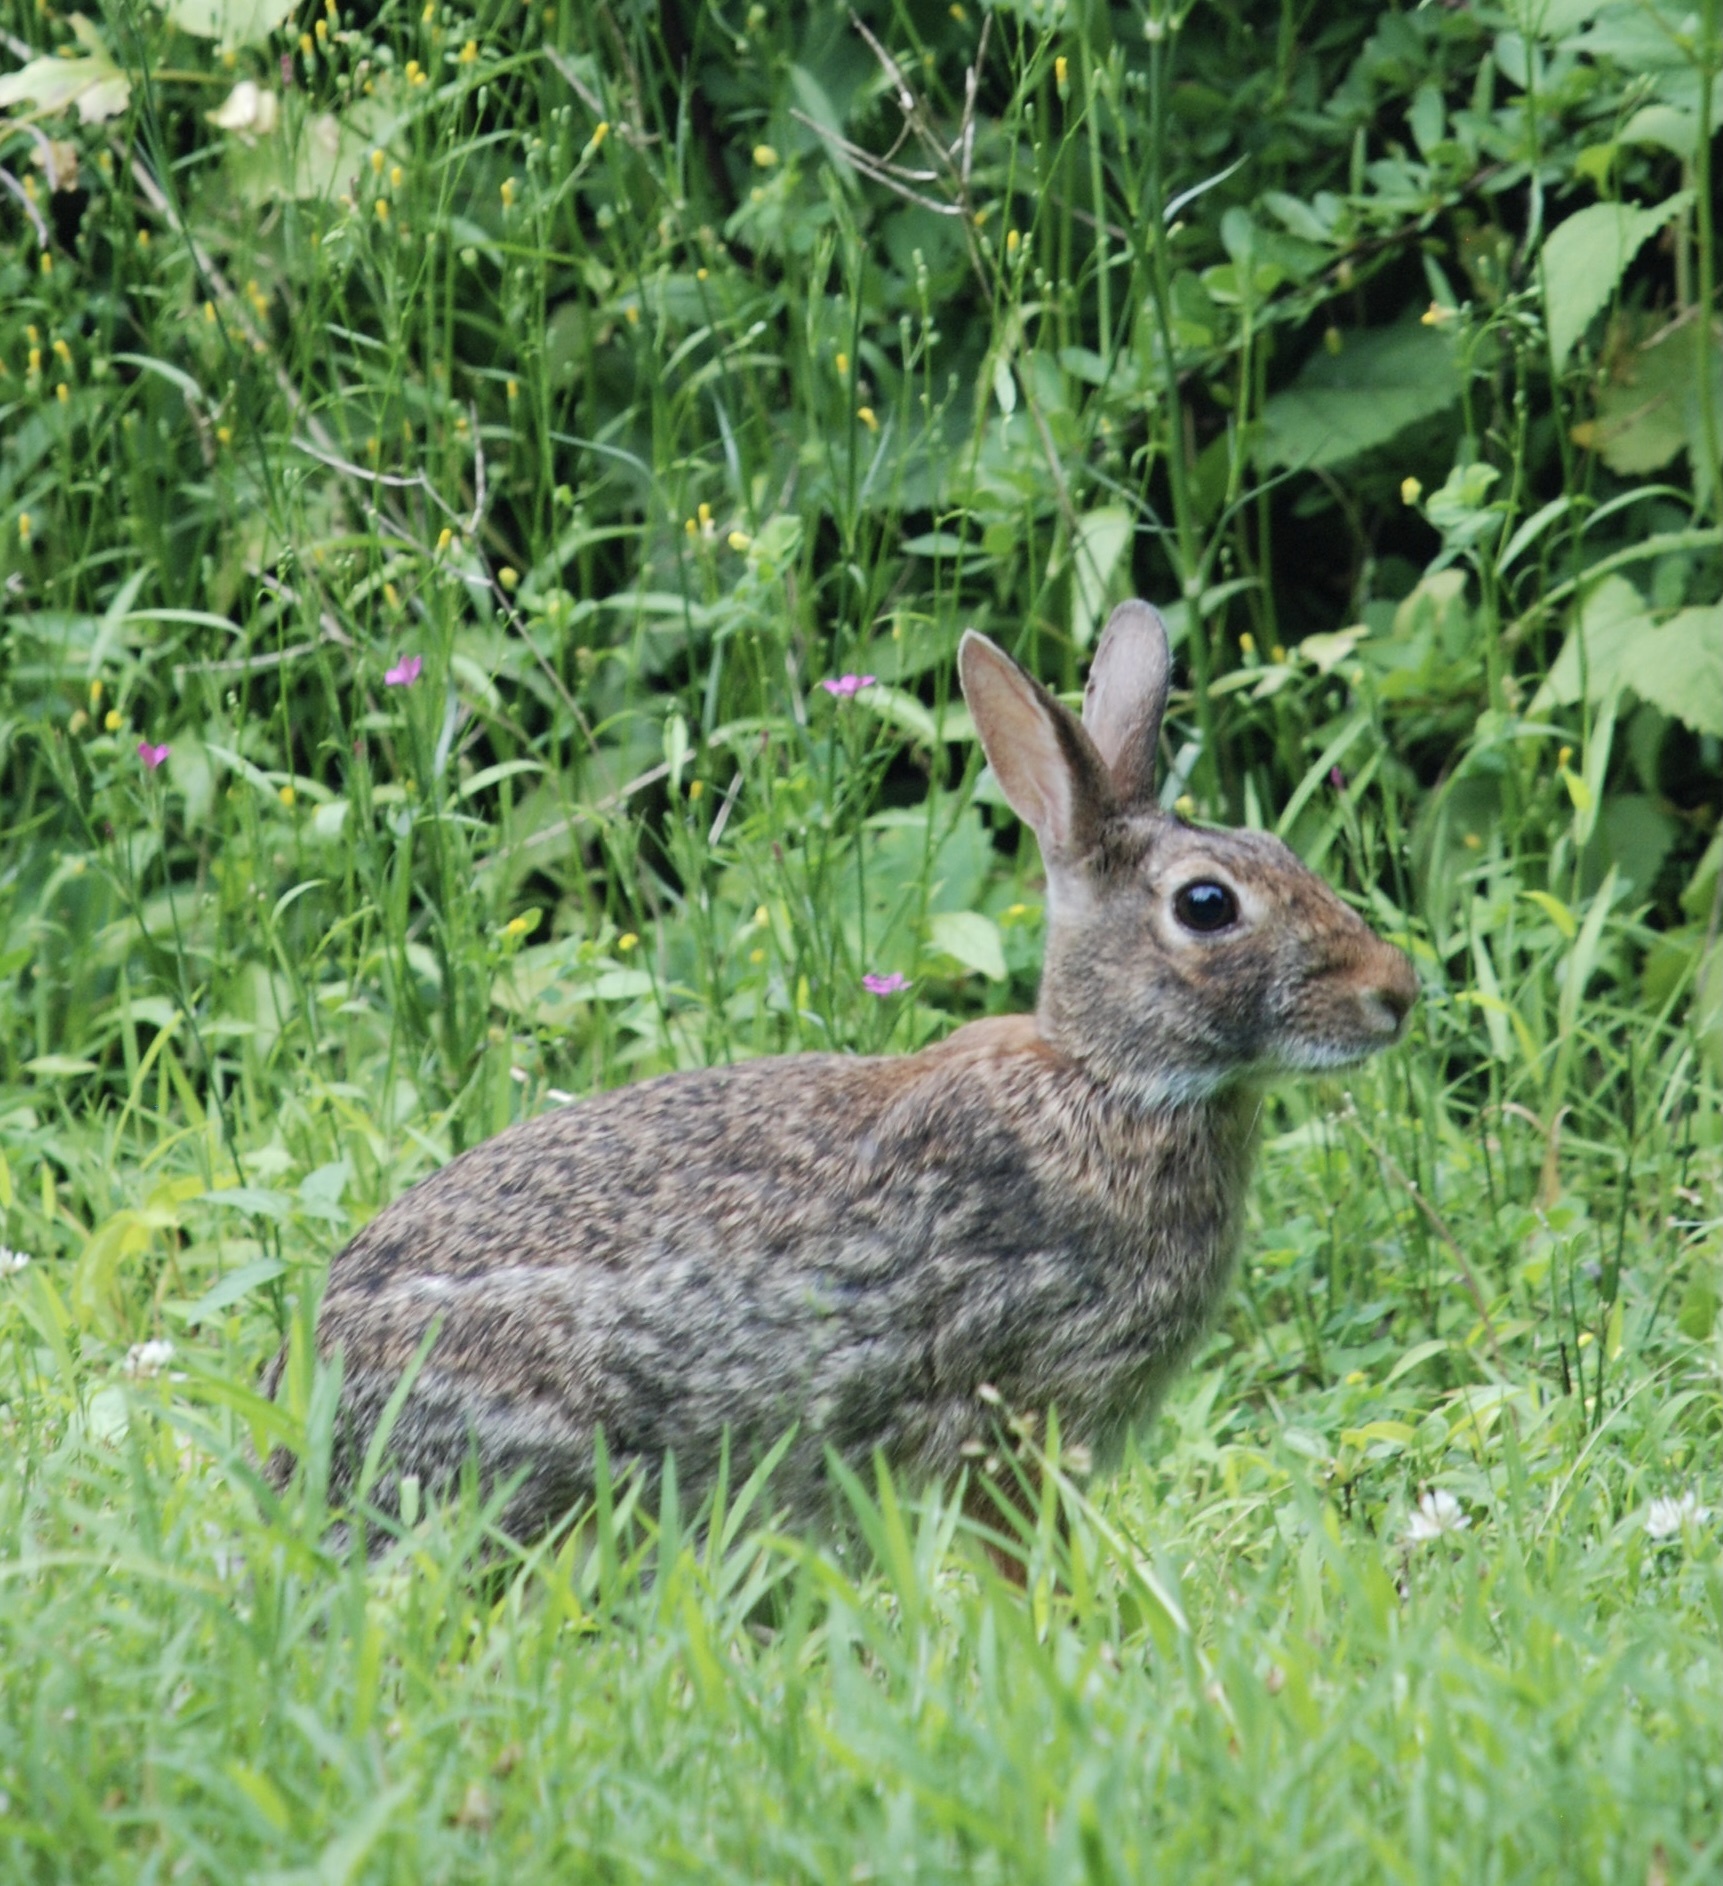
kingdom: Animalia
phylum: Chordata
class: Mammalia
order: Lagomorpha
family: Leporidae
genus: Sylvilagus
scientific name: Sylvilagus floridanus
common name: Eastern cottontail
